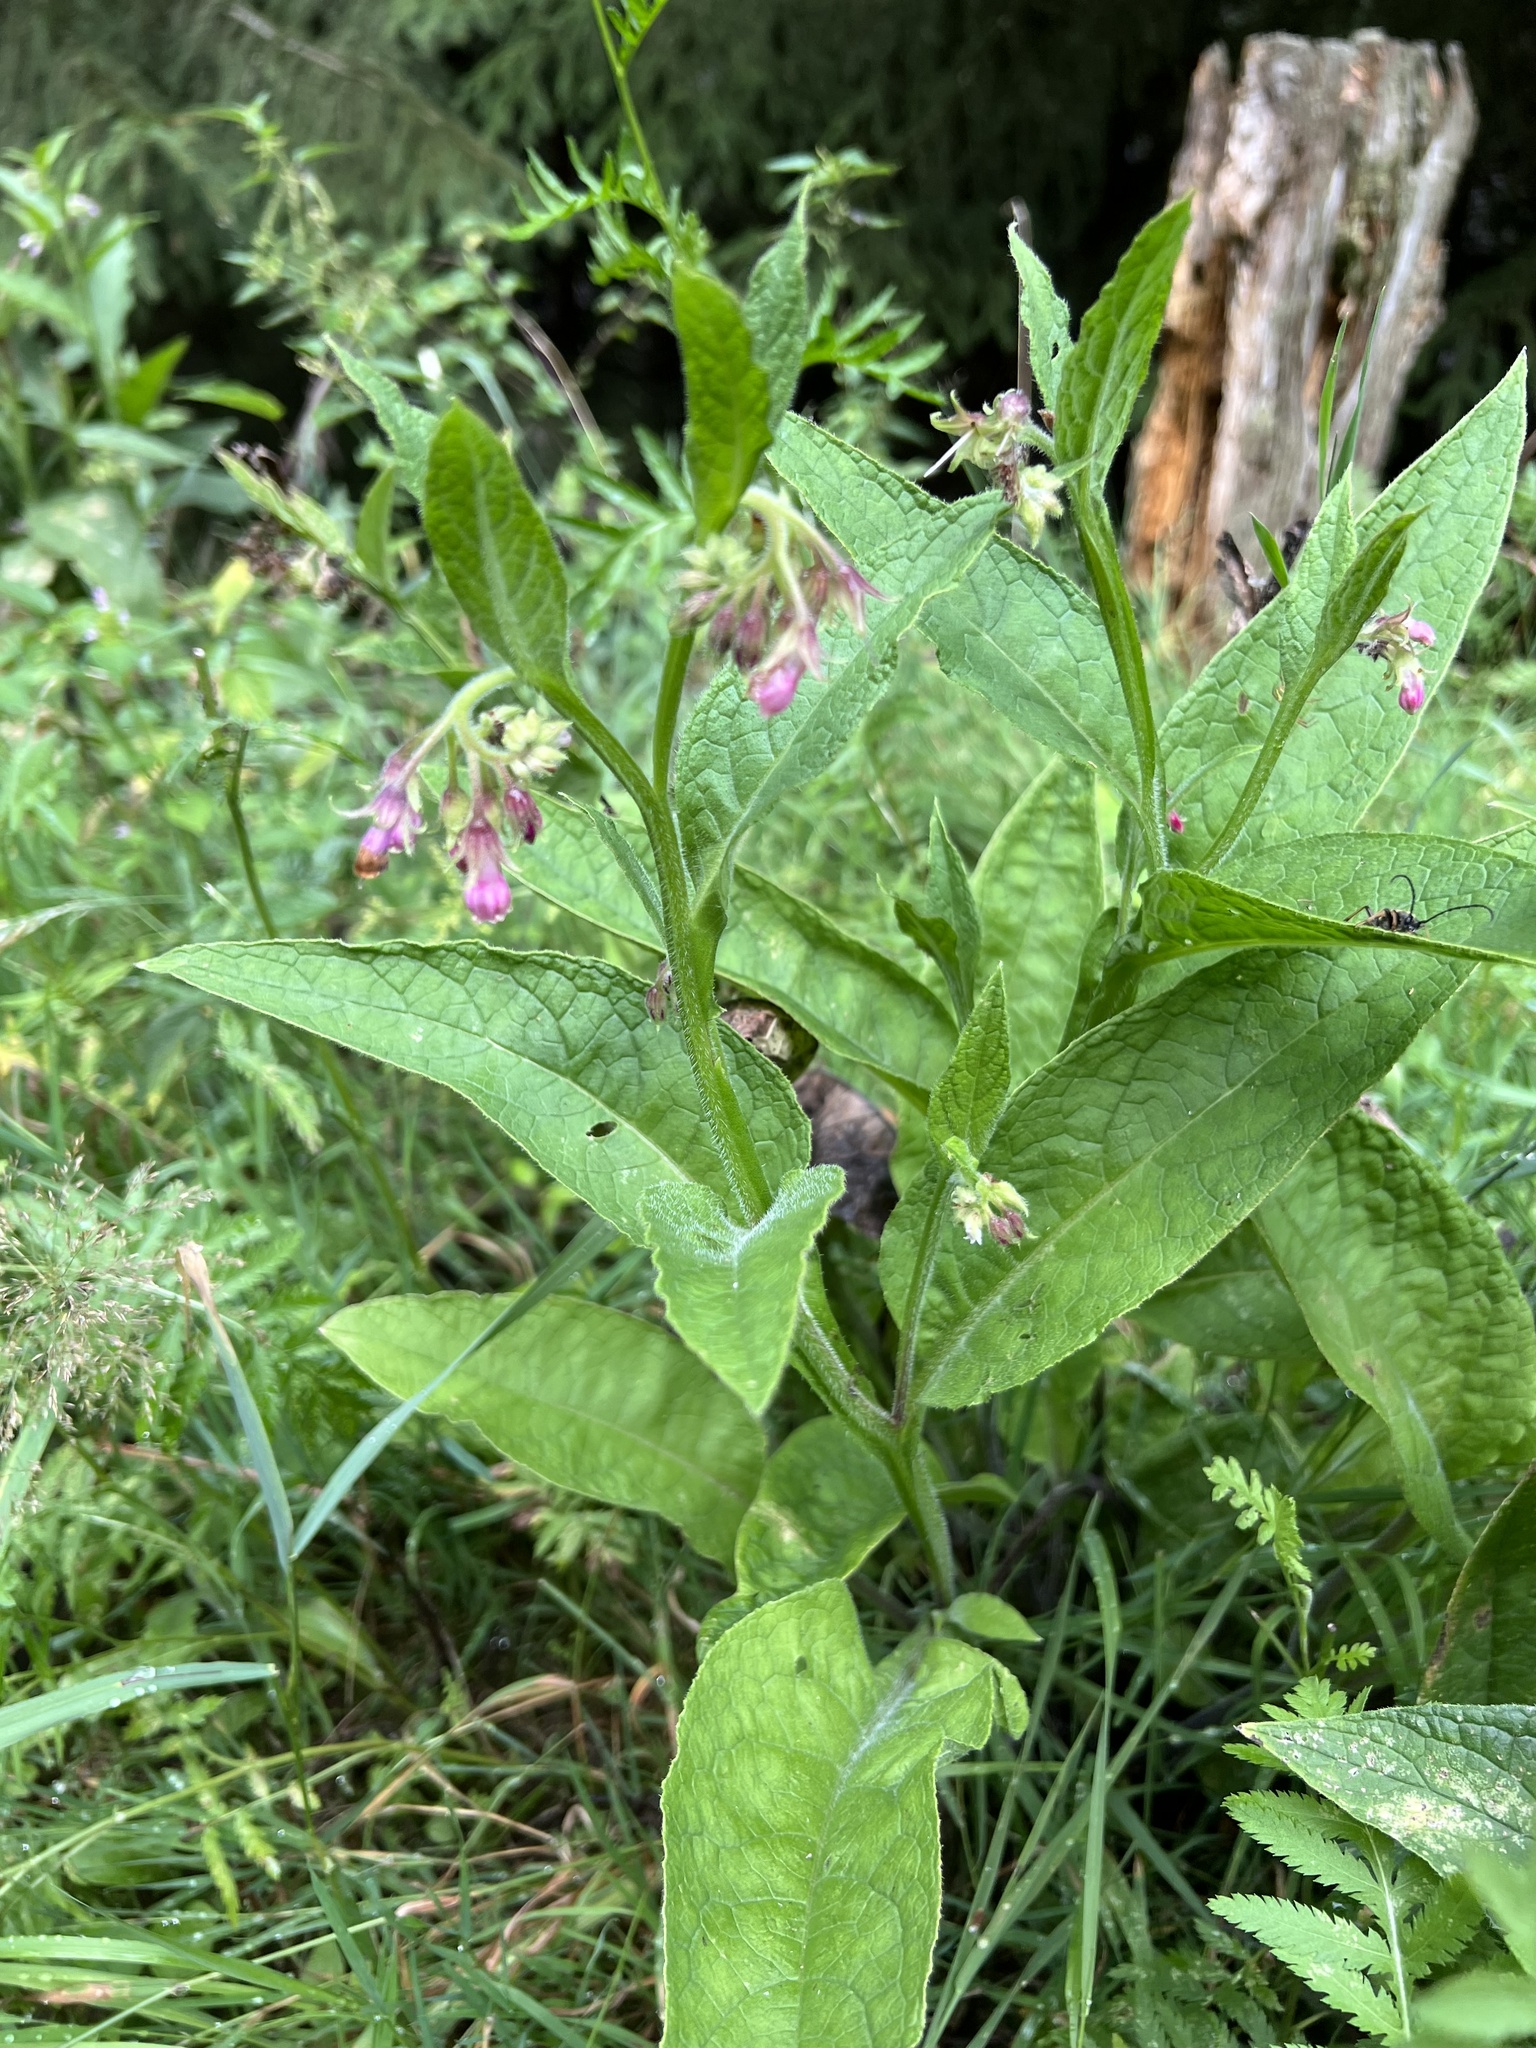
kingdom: Plantae
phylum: Tracheophyta
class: Magnoliopsida
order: Boraginales
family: Boraginaceae
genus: Symphytum
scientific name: Symphytum officinale
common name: Common comfrey
